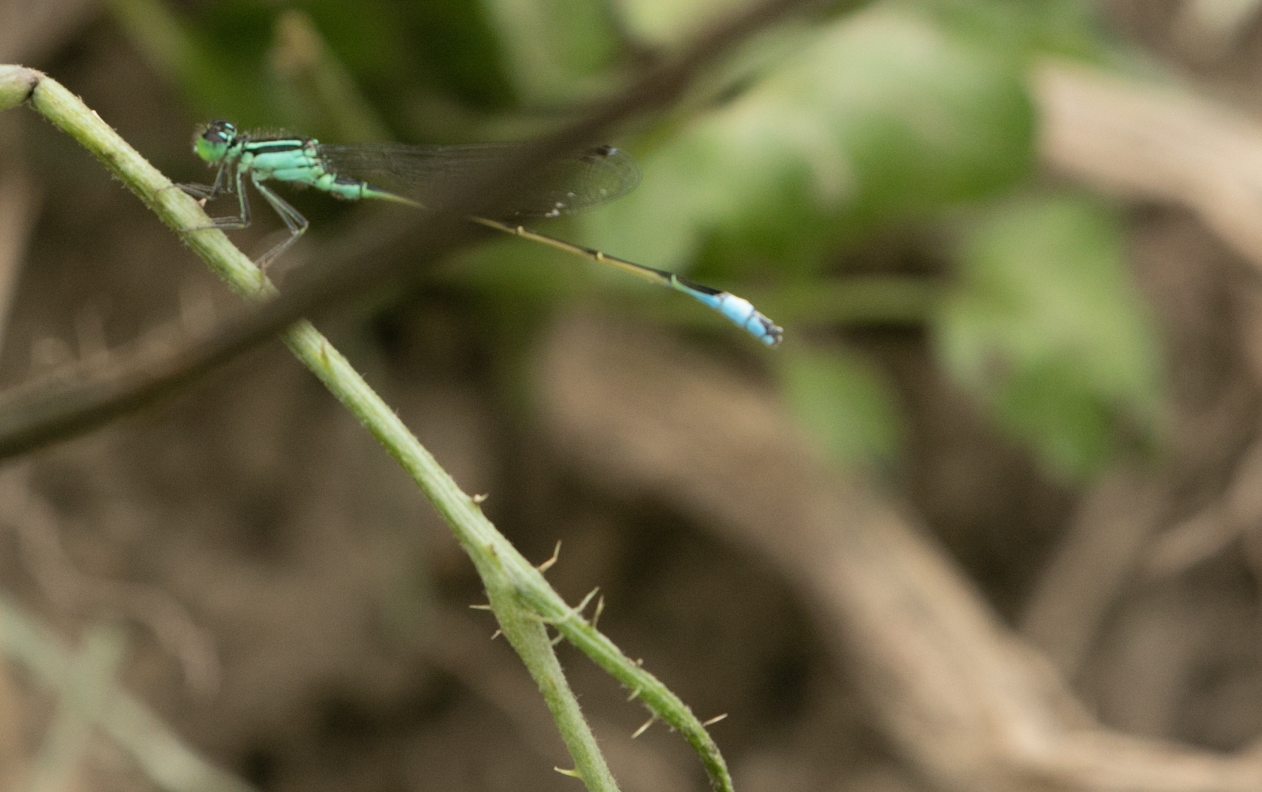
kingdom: Animalia
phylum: Arthropoda
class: Insecta
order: Odonata
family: Coenagrionidae
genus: Ischnura
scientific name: Ischnura elegans
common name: Blue-tailed damselfly
